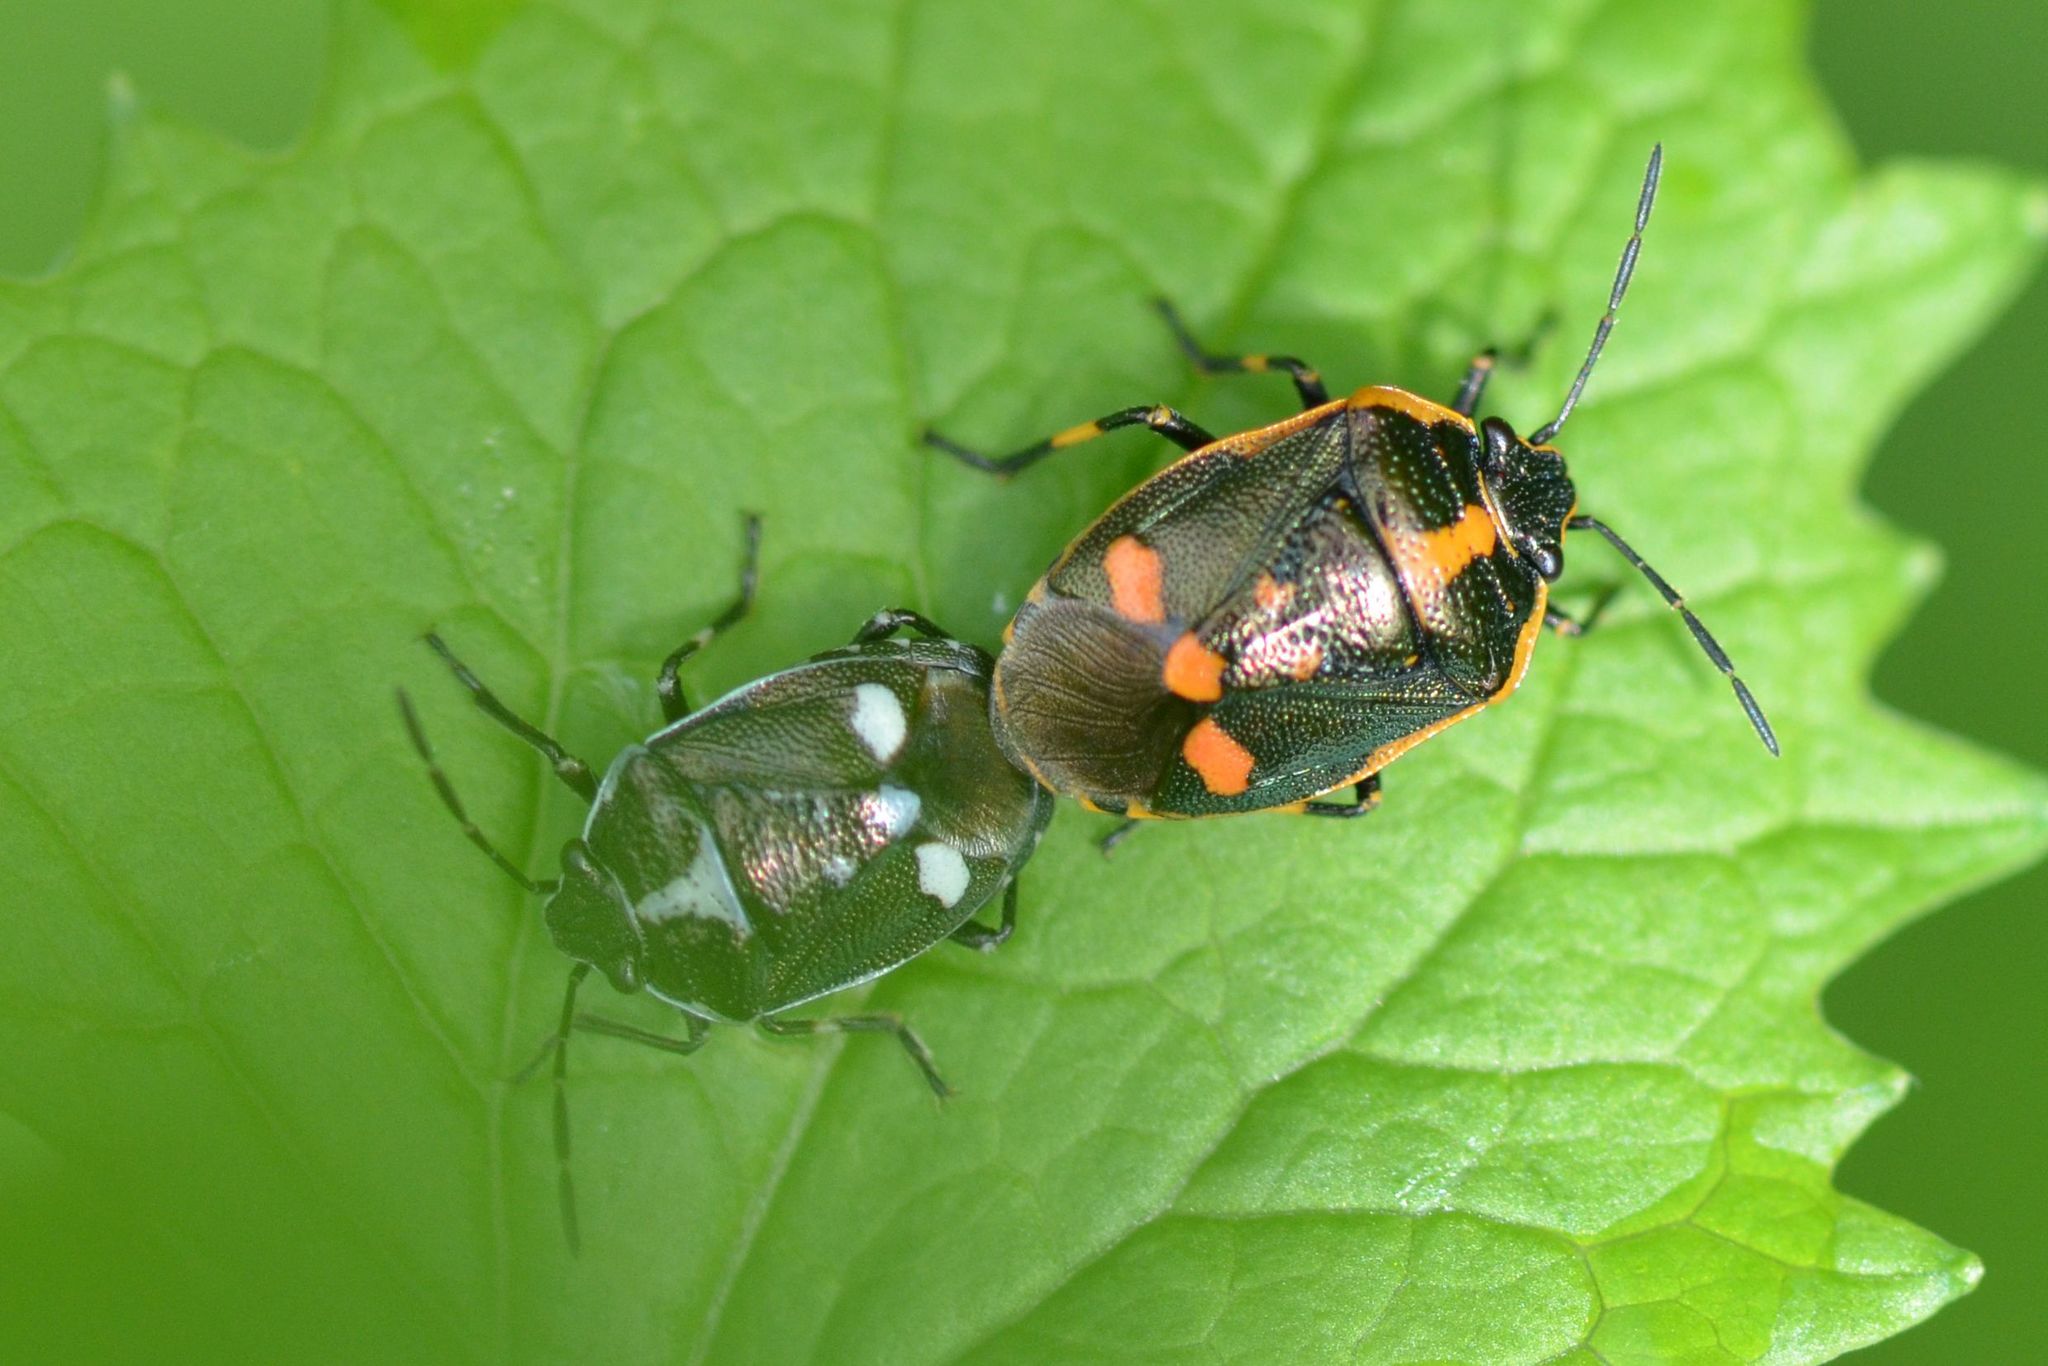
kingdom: Animalia
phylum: Arthropoda
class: Insecta
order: Hemiptera
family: Pentatomidae
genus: Eurydema
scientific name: Eurydema oleracea
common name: Cabbage bug
